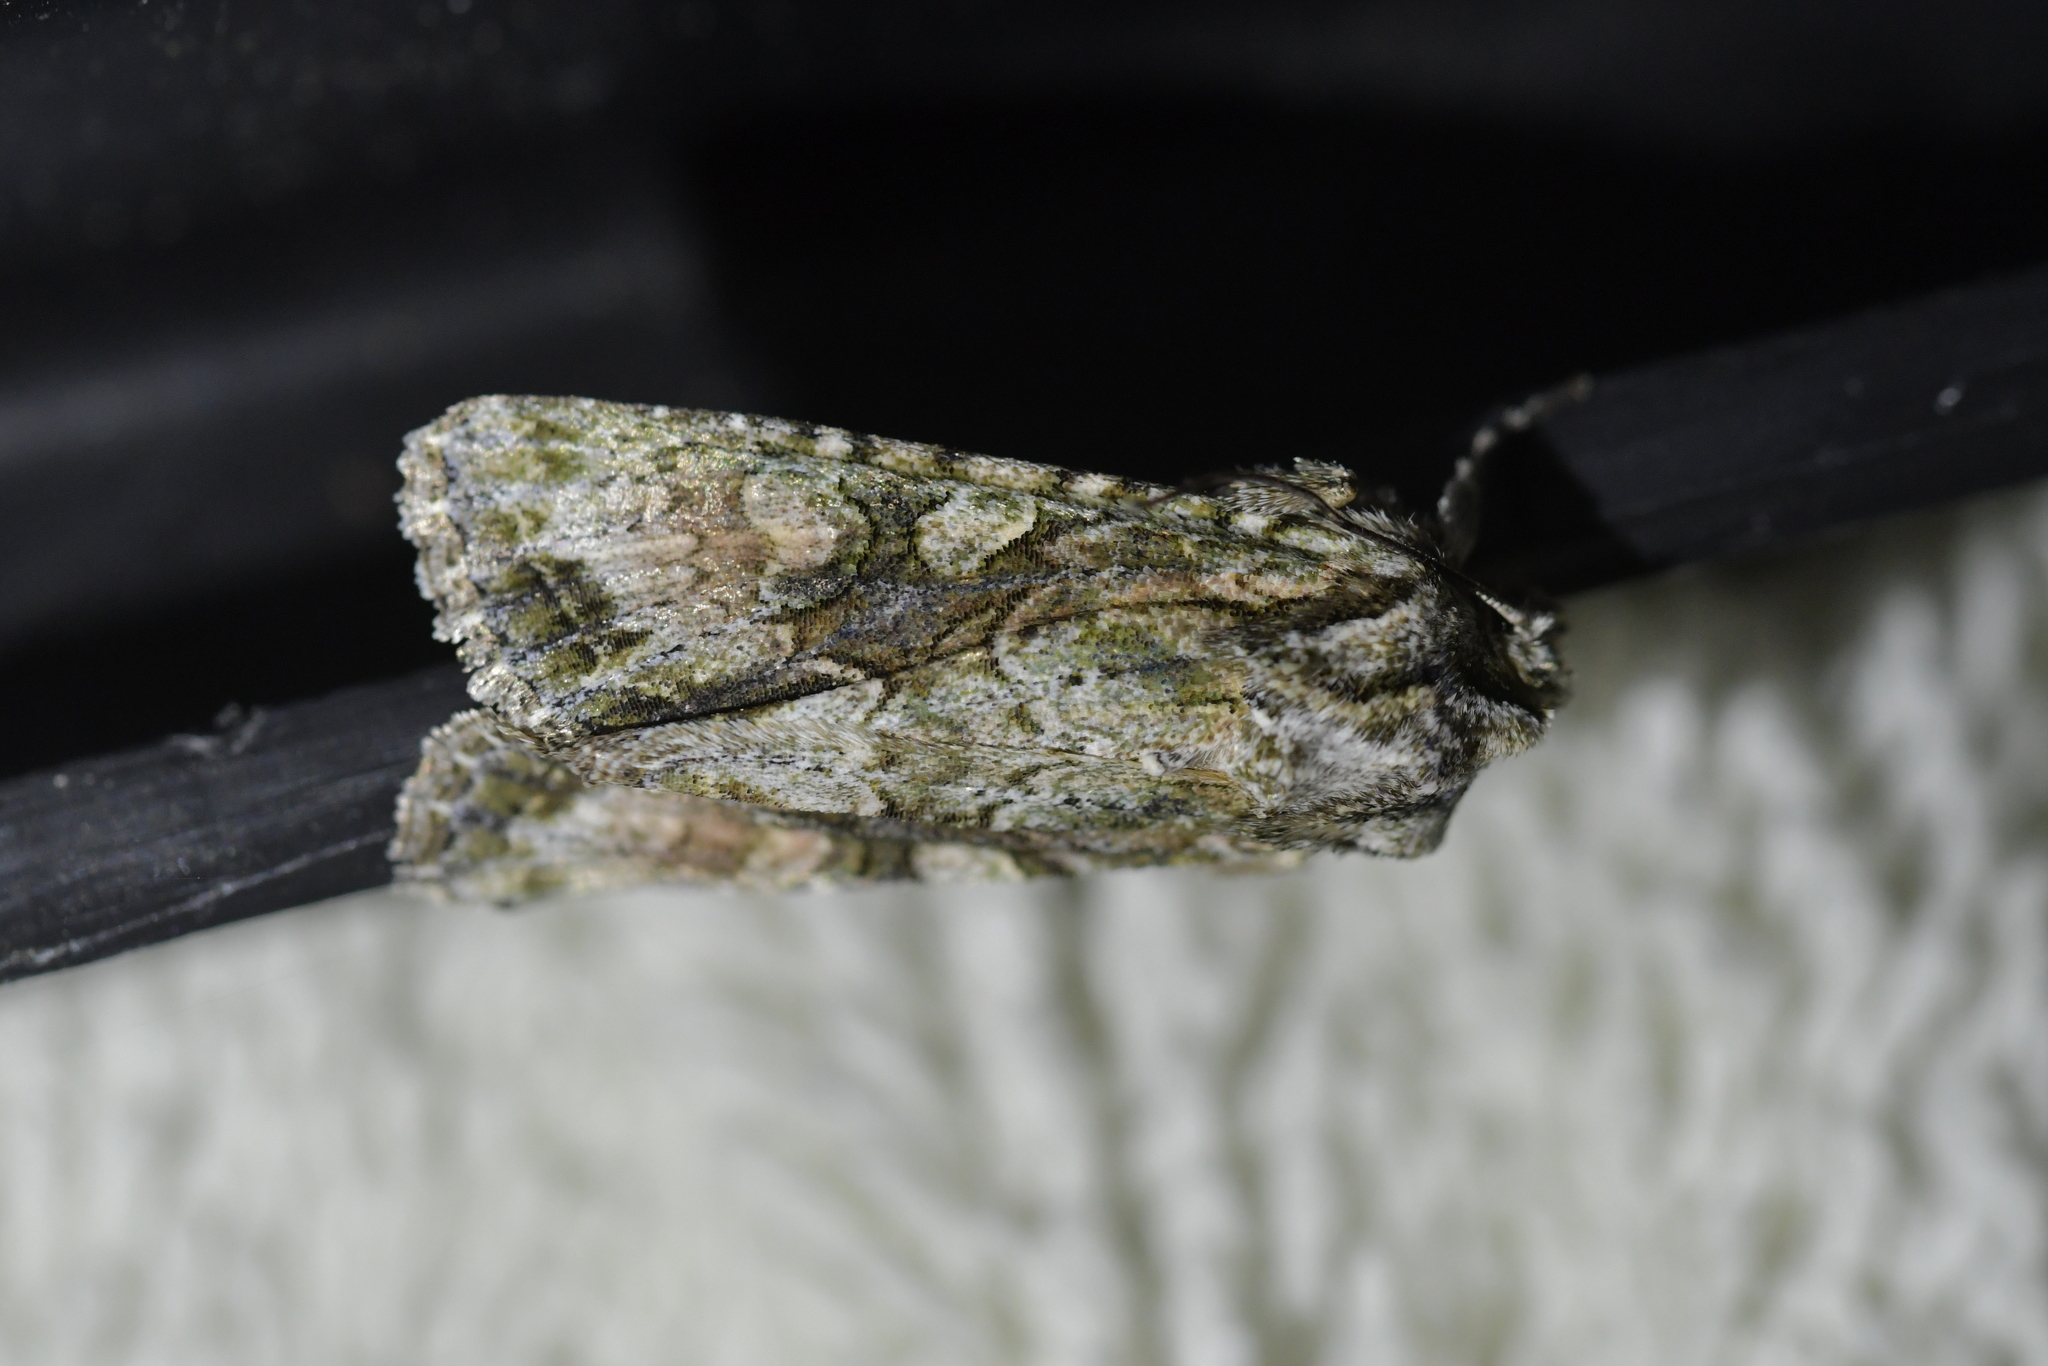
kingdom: Animalia
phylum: Arthropoda
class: Insecta
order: Lepidoptera
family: Noctuidae
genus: Ichneutica
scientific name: Ichneutica mutans
